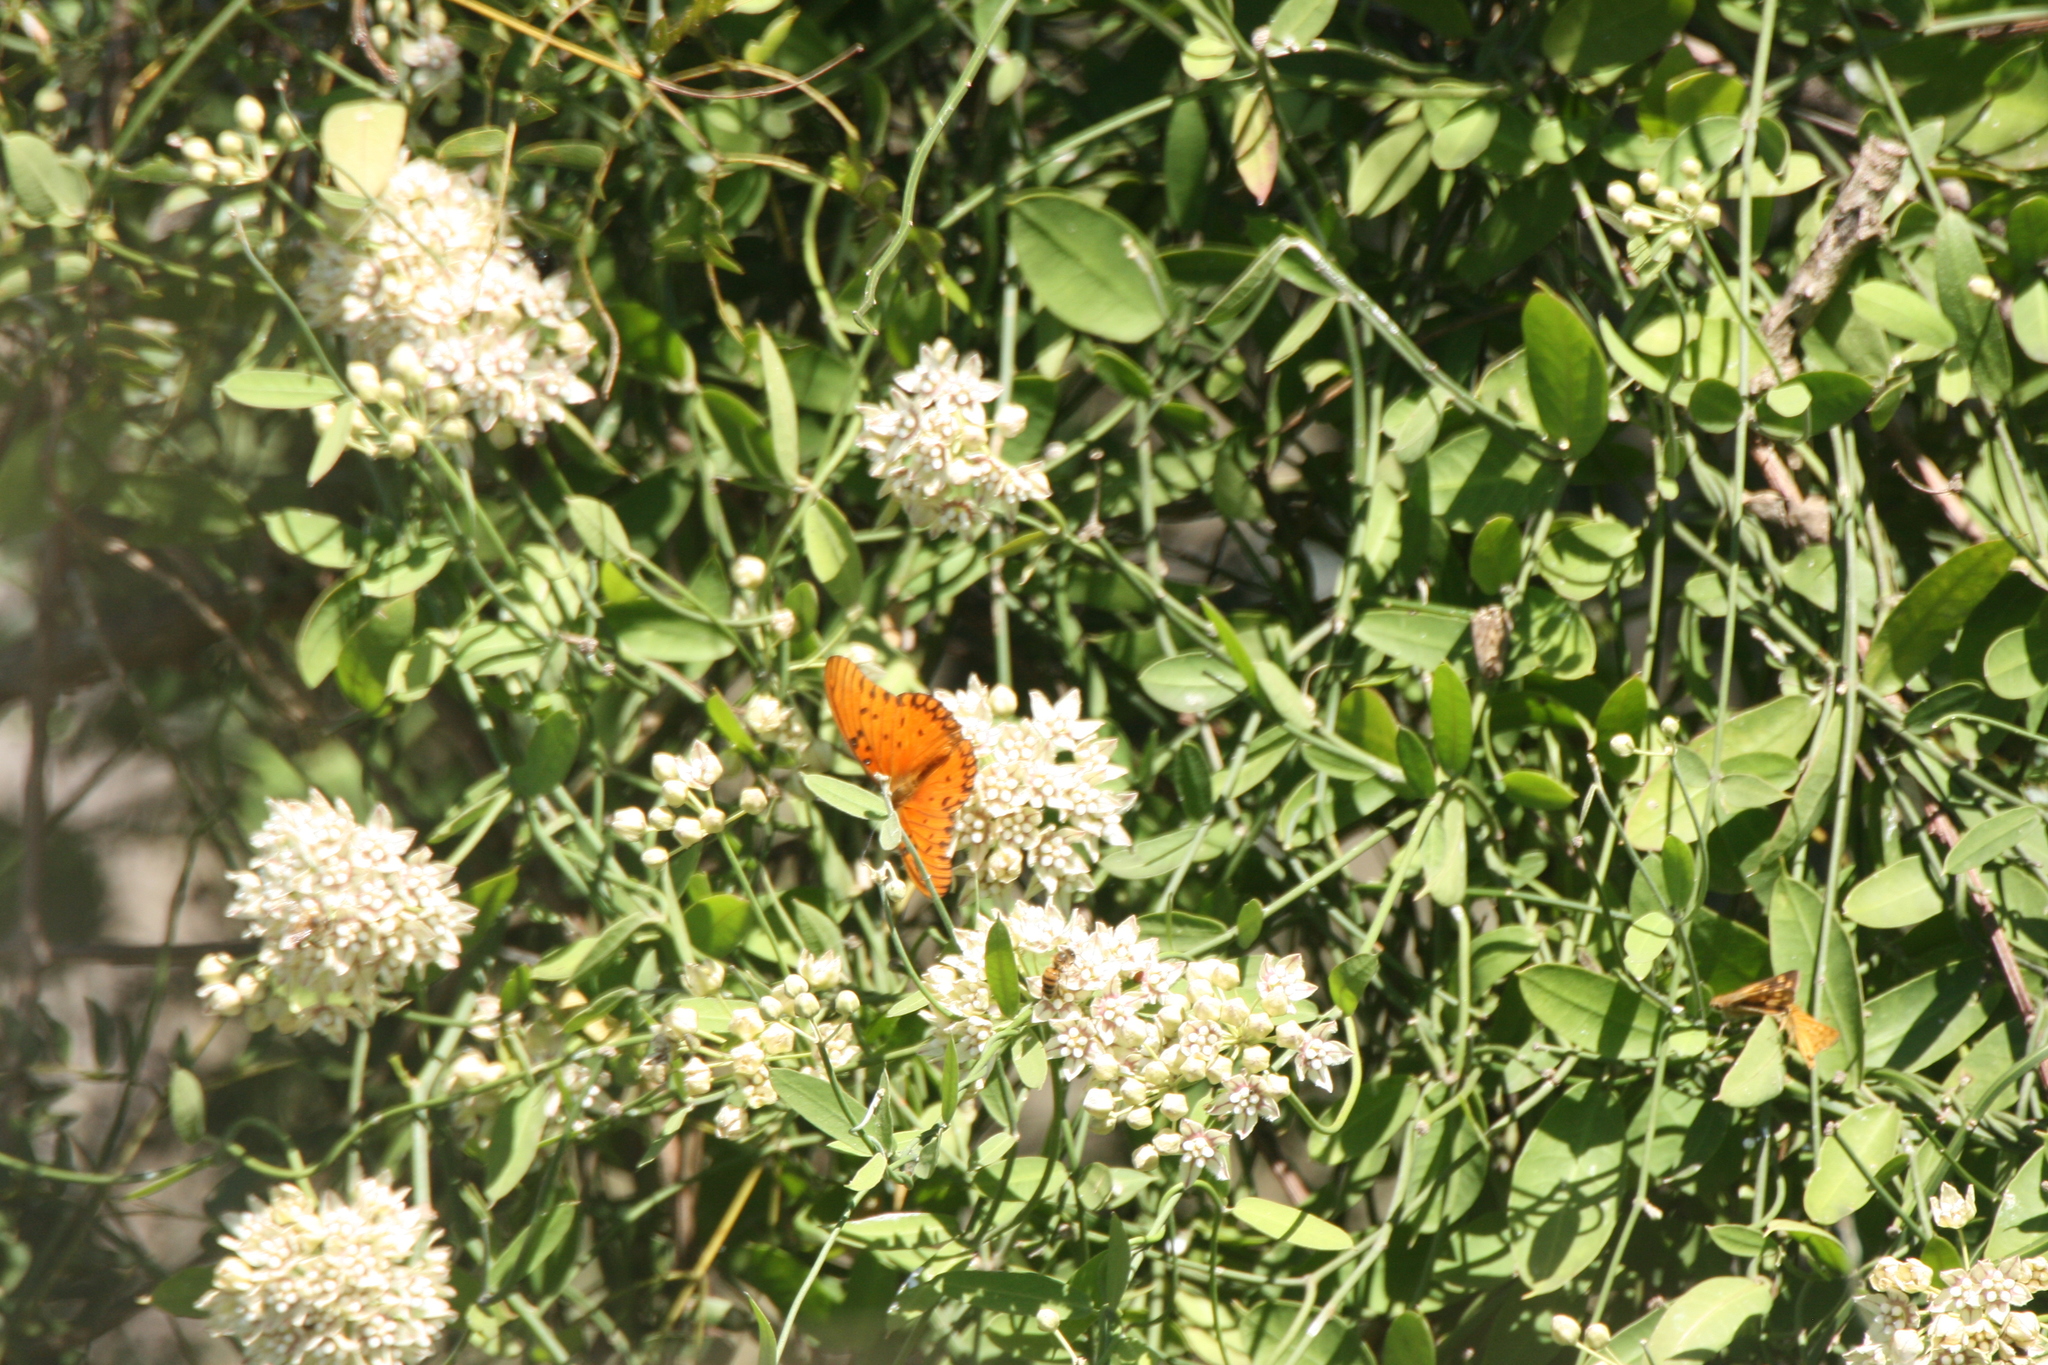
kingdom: Animalia
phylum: Arthropoda
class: Insecta
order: Lepidoptera
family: Nymphalidae
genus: Dione
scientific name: Dione vanillae
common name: Gulf fritillary
